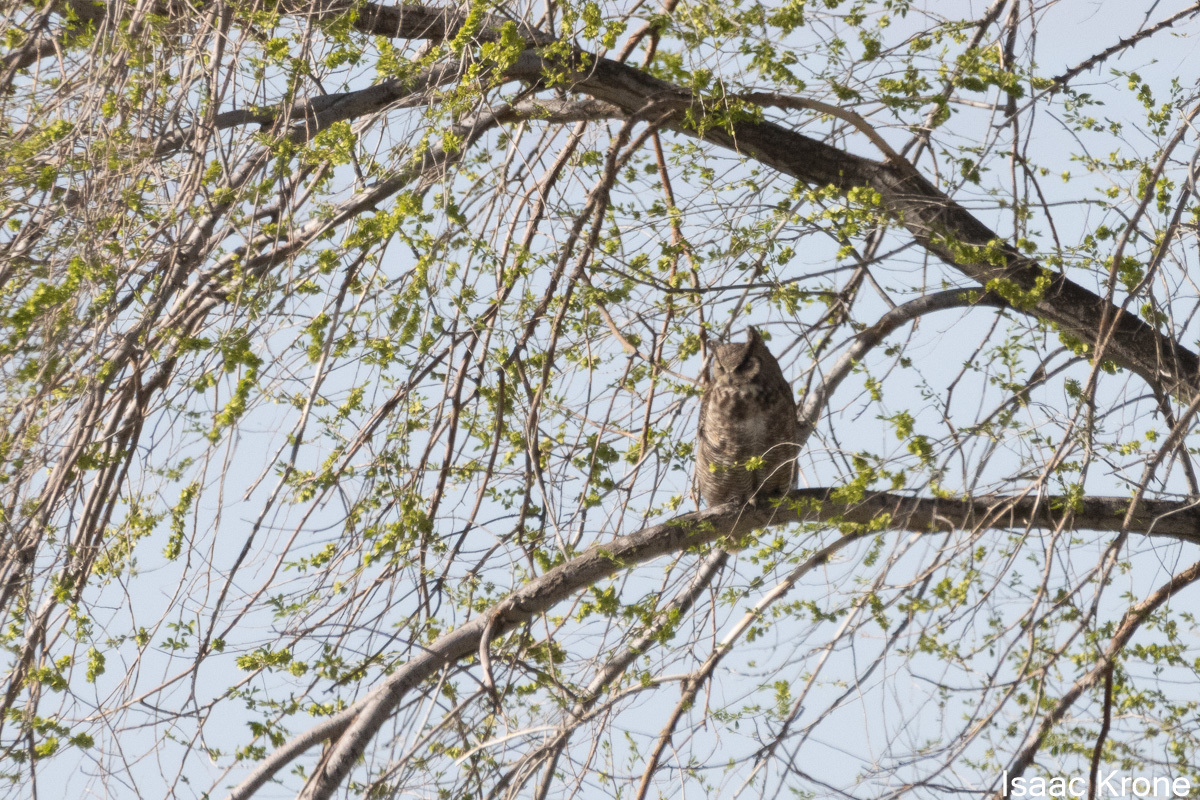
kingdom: Animalia
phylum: Chordata
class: Aves
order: Strigiformes
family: Strigidae
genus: Bubo
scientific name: Bubo virginianus
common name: Great horned owl
